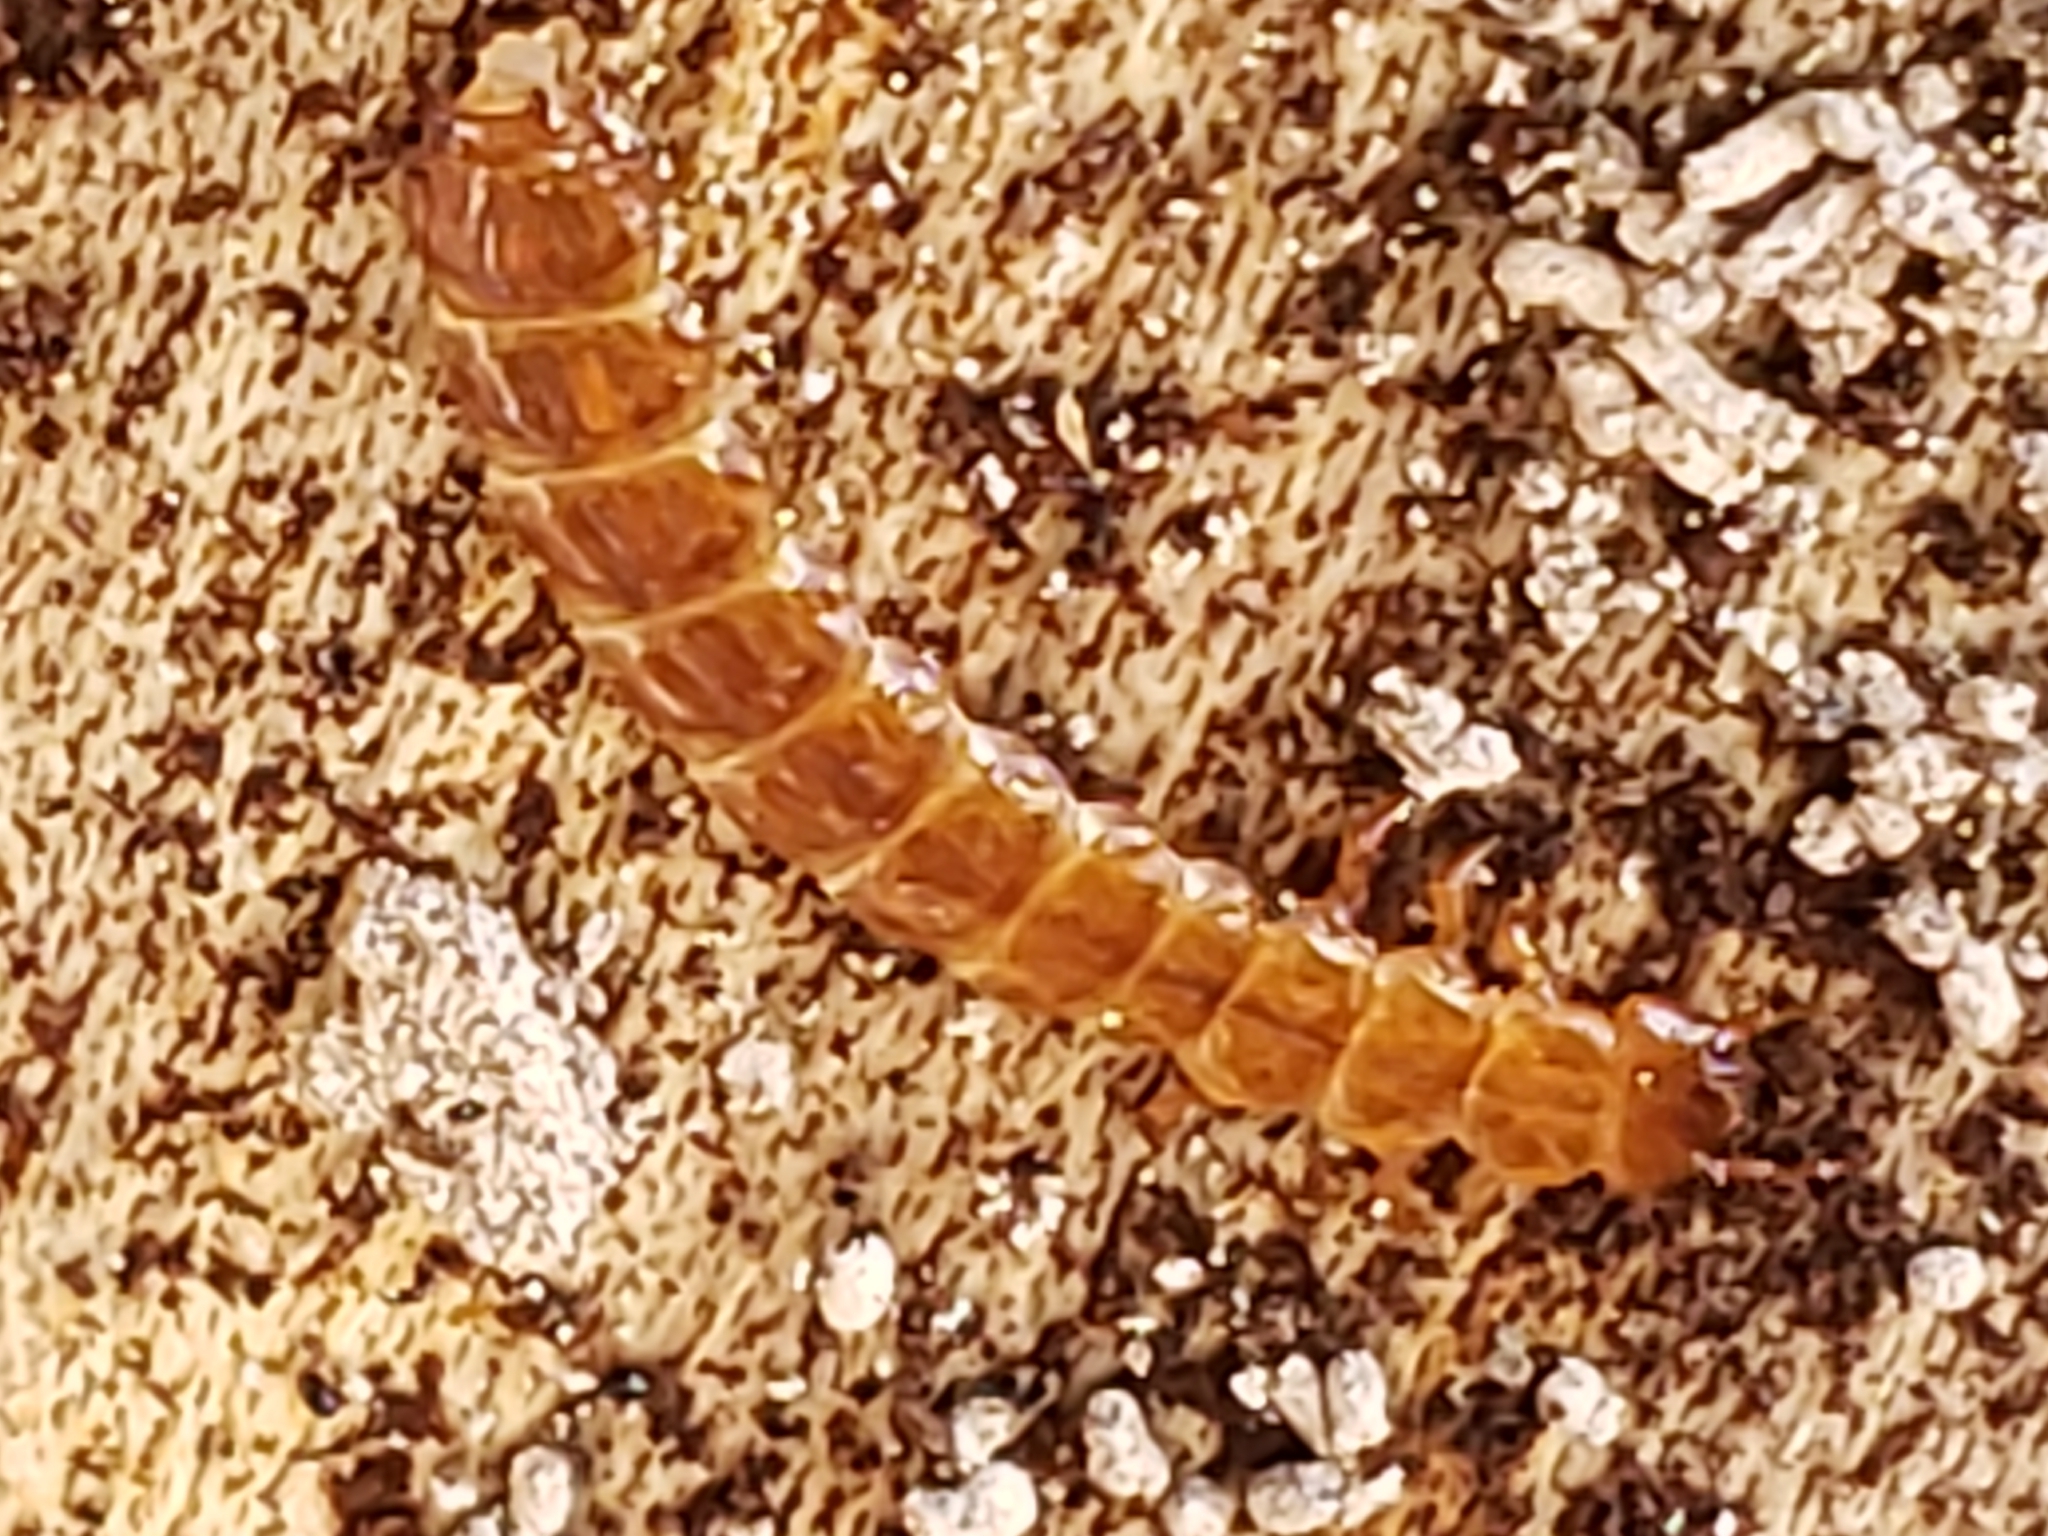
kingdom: Animalia
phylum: Arthropoda
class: Insecta
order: Coleoptera
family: Cucujidae
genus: Cucujus
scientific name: Cucujus clavipes
